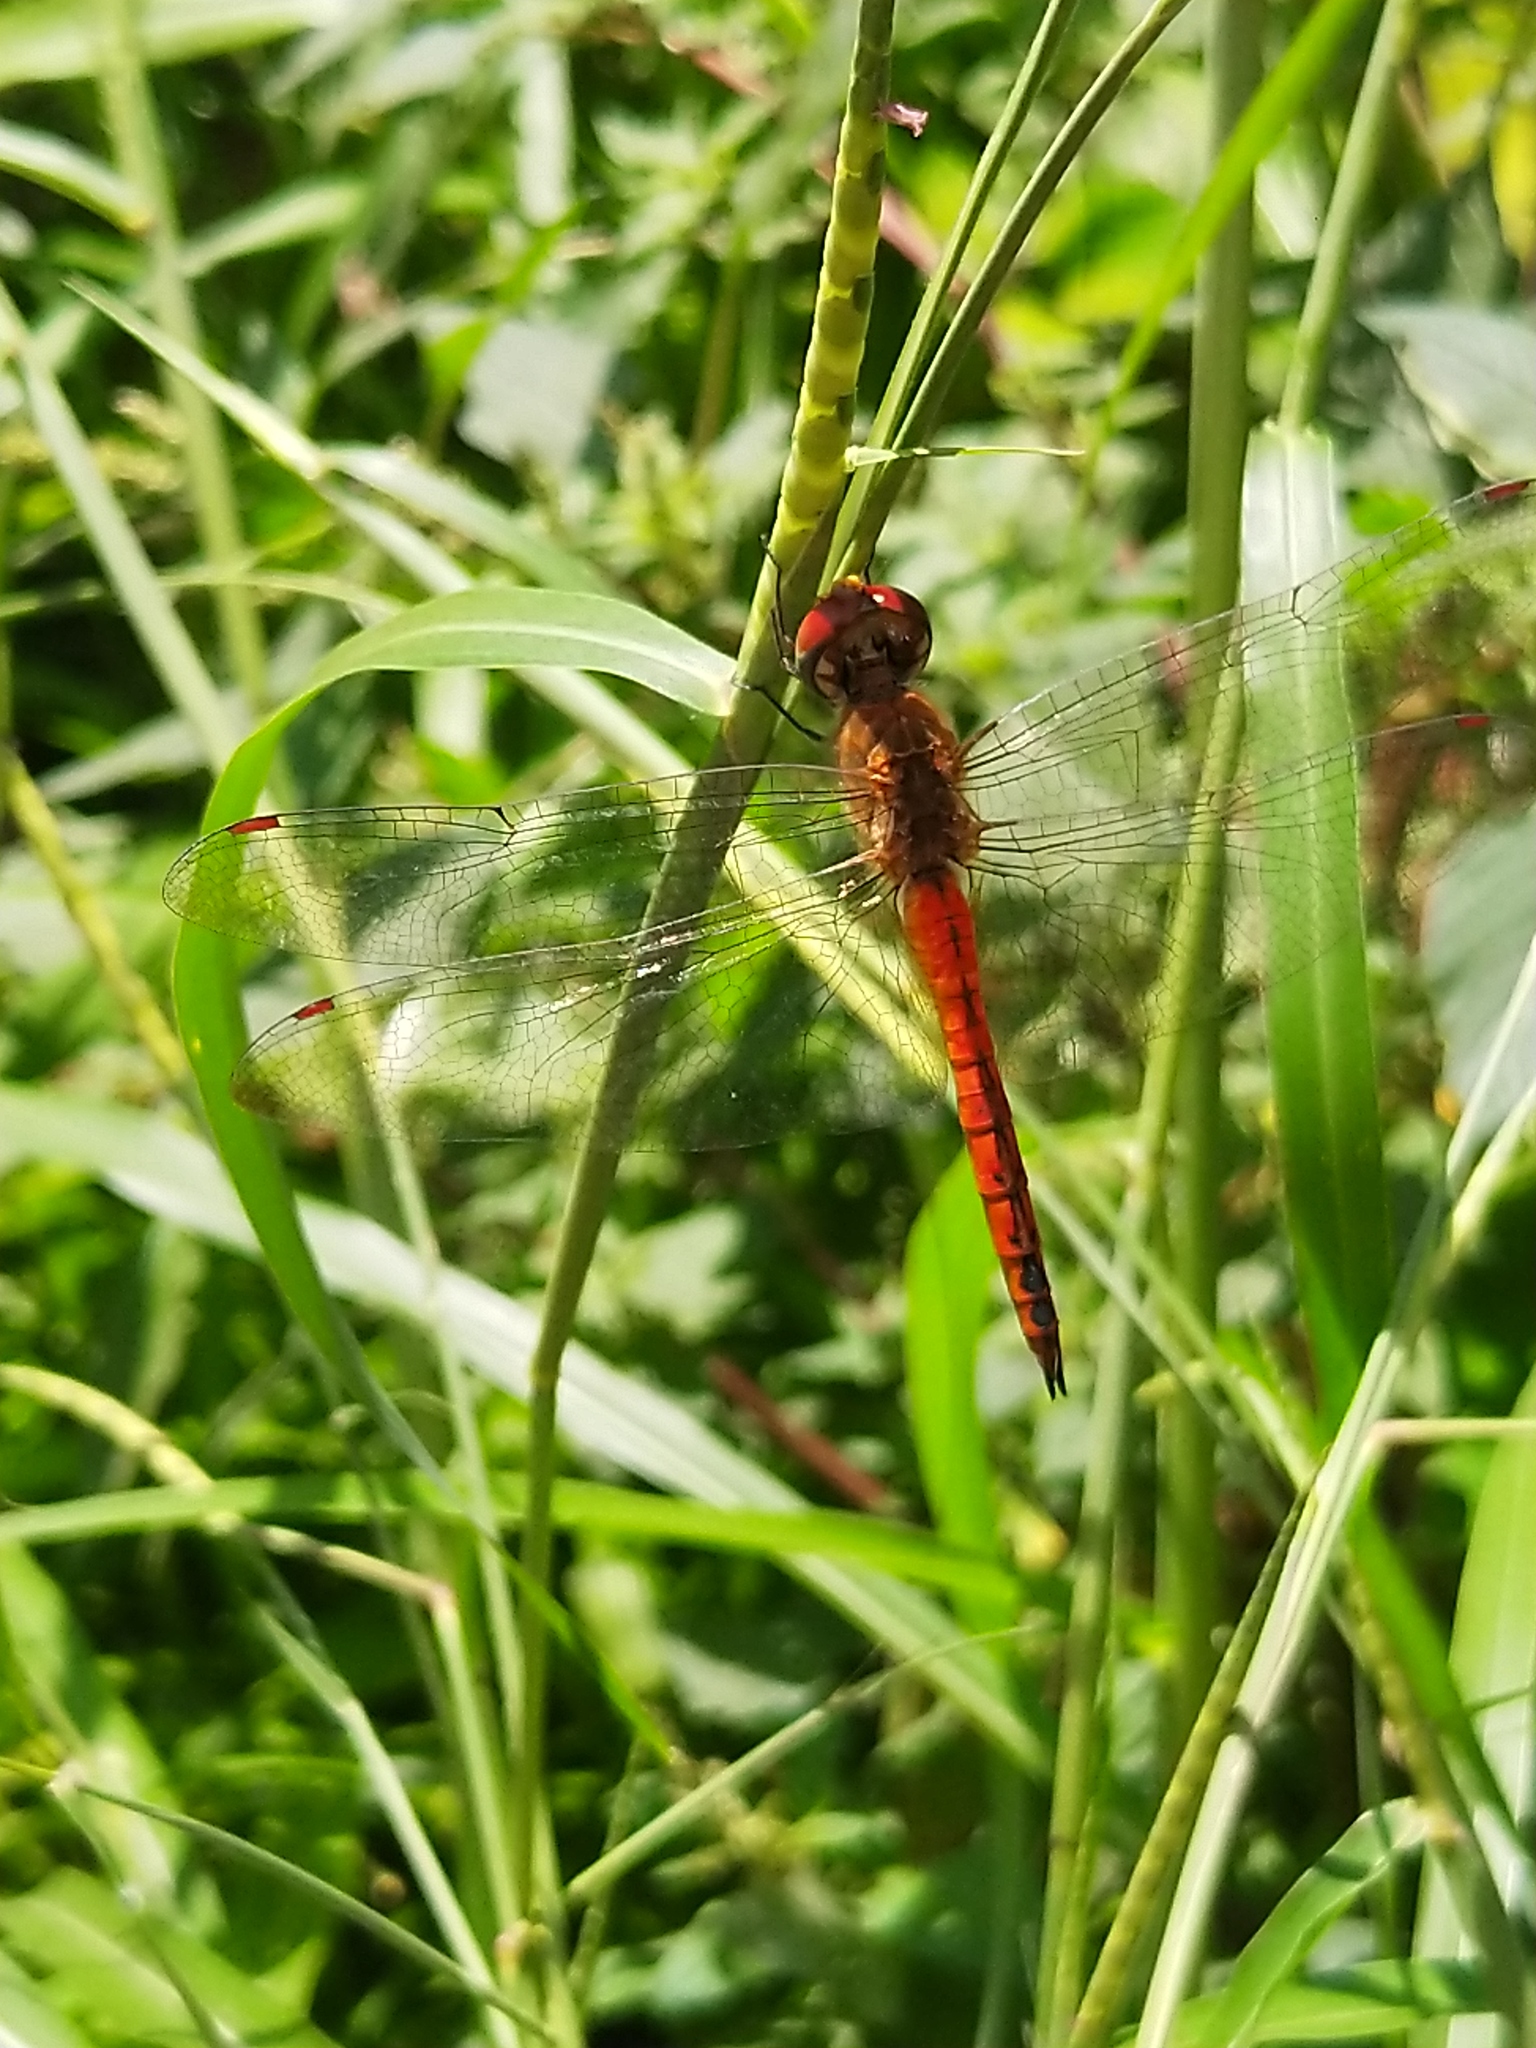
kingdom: Animalia
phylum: Arthropoda
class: Insecta
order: Odonata
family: Libellulidae
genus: Pantala
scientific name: Pantala flavescens
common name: Wandering glider
